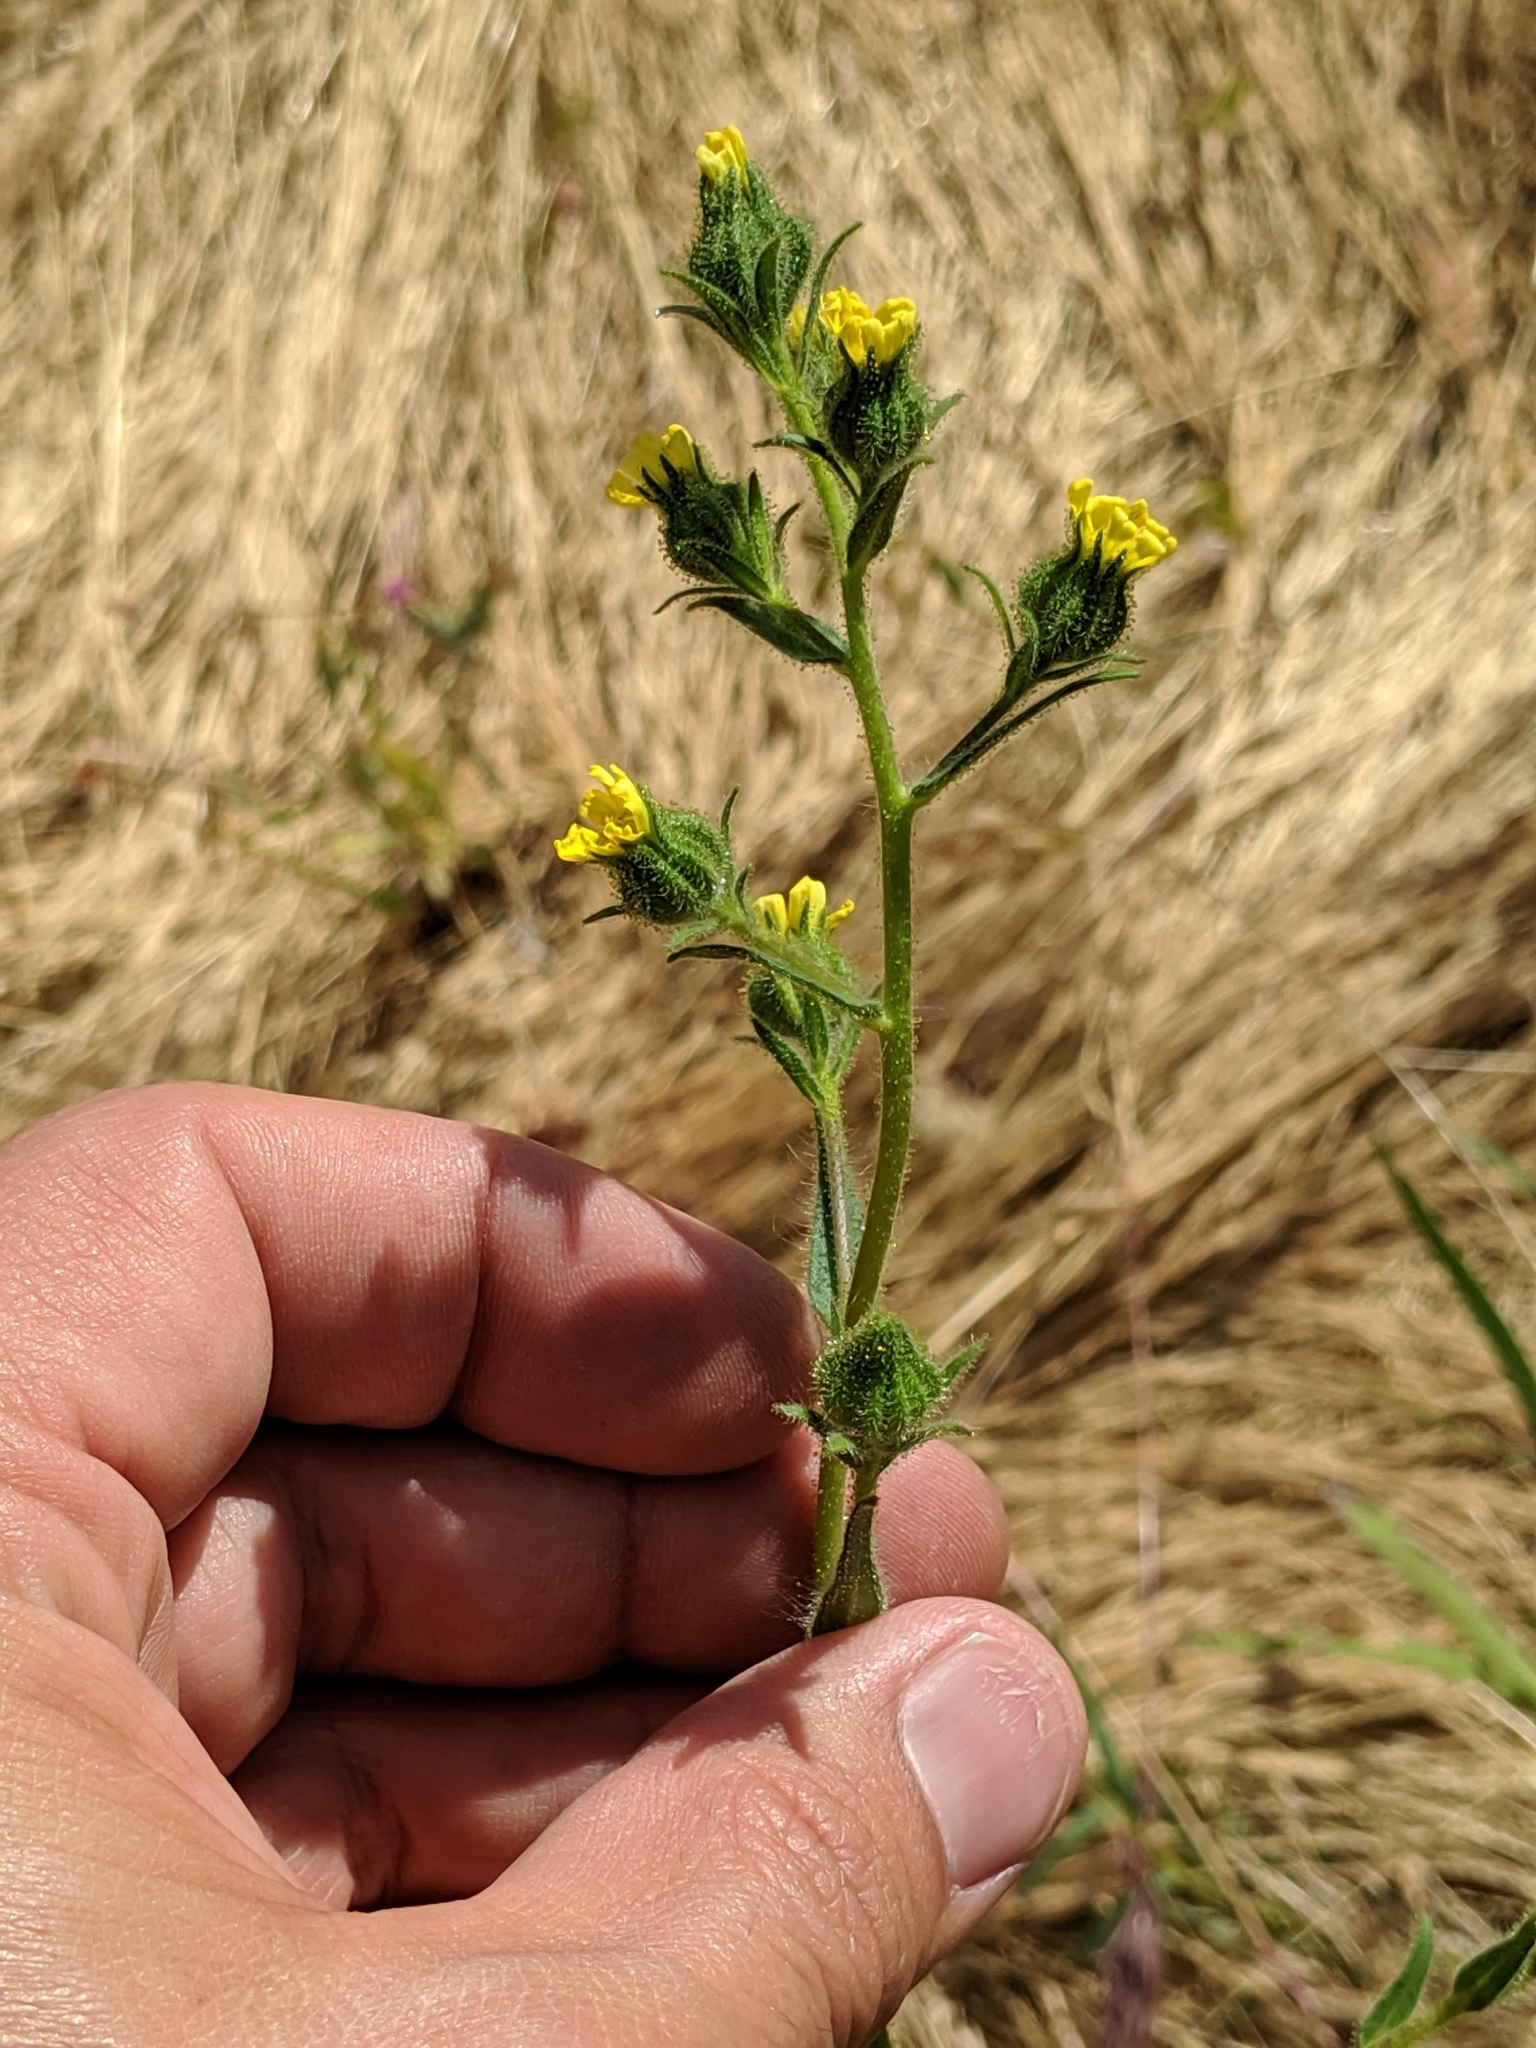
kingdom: Plantae
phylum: Tracheophyta
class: Magnoliopsida
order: Asterales
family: Asteraceae
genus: Madia
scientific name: Madia gracilis
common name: Grassy tarweed
